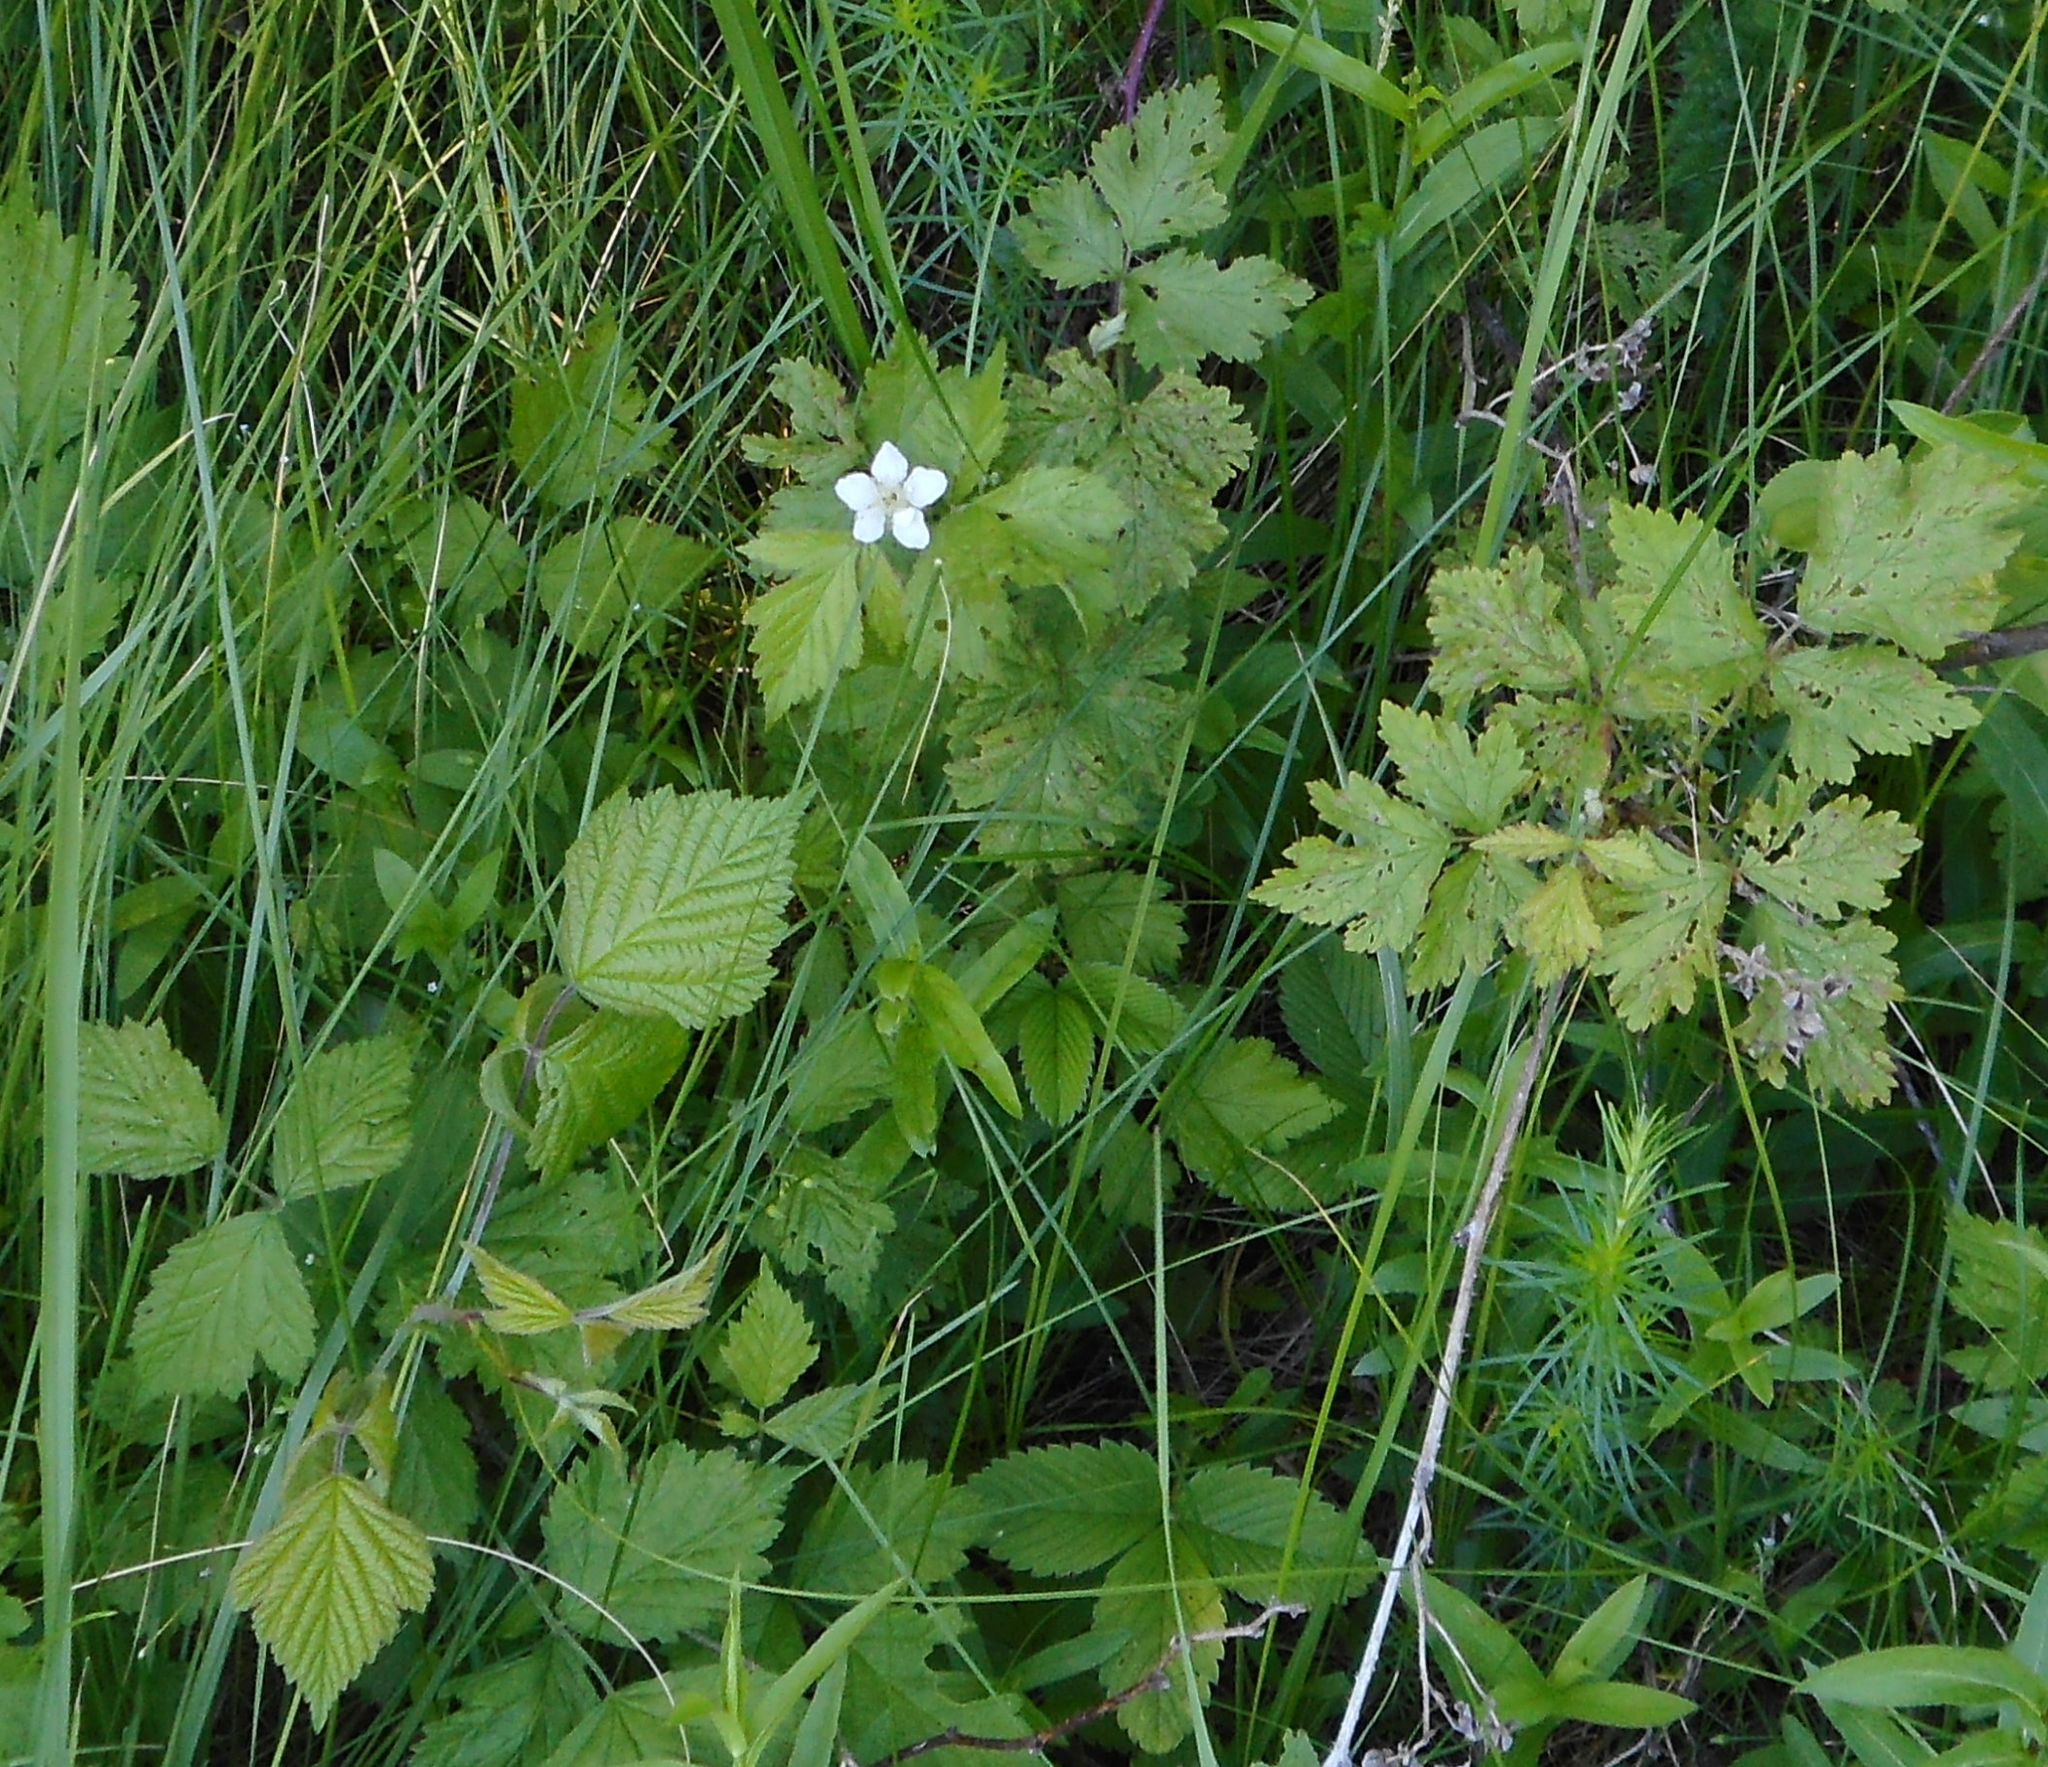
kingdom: Plantae
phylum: Tracheophyta
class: Magnoliopsida
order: Rosales
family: Rosaceae
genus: Rubus
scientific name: Rubus caesius
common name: Dewberry
